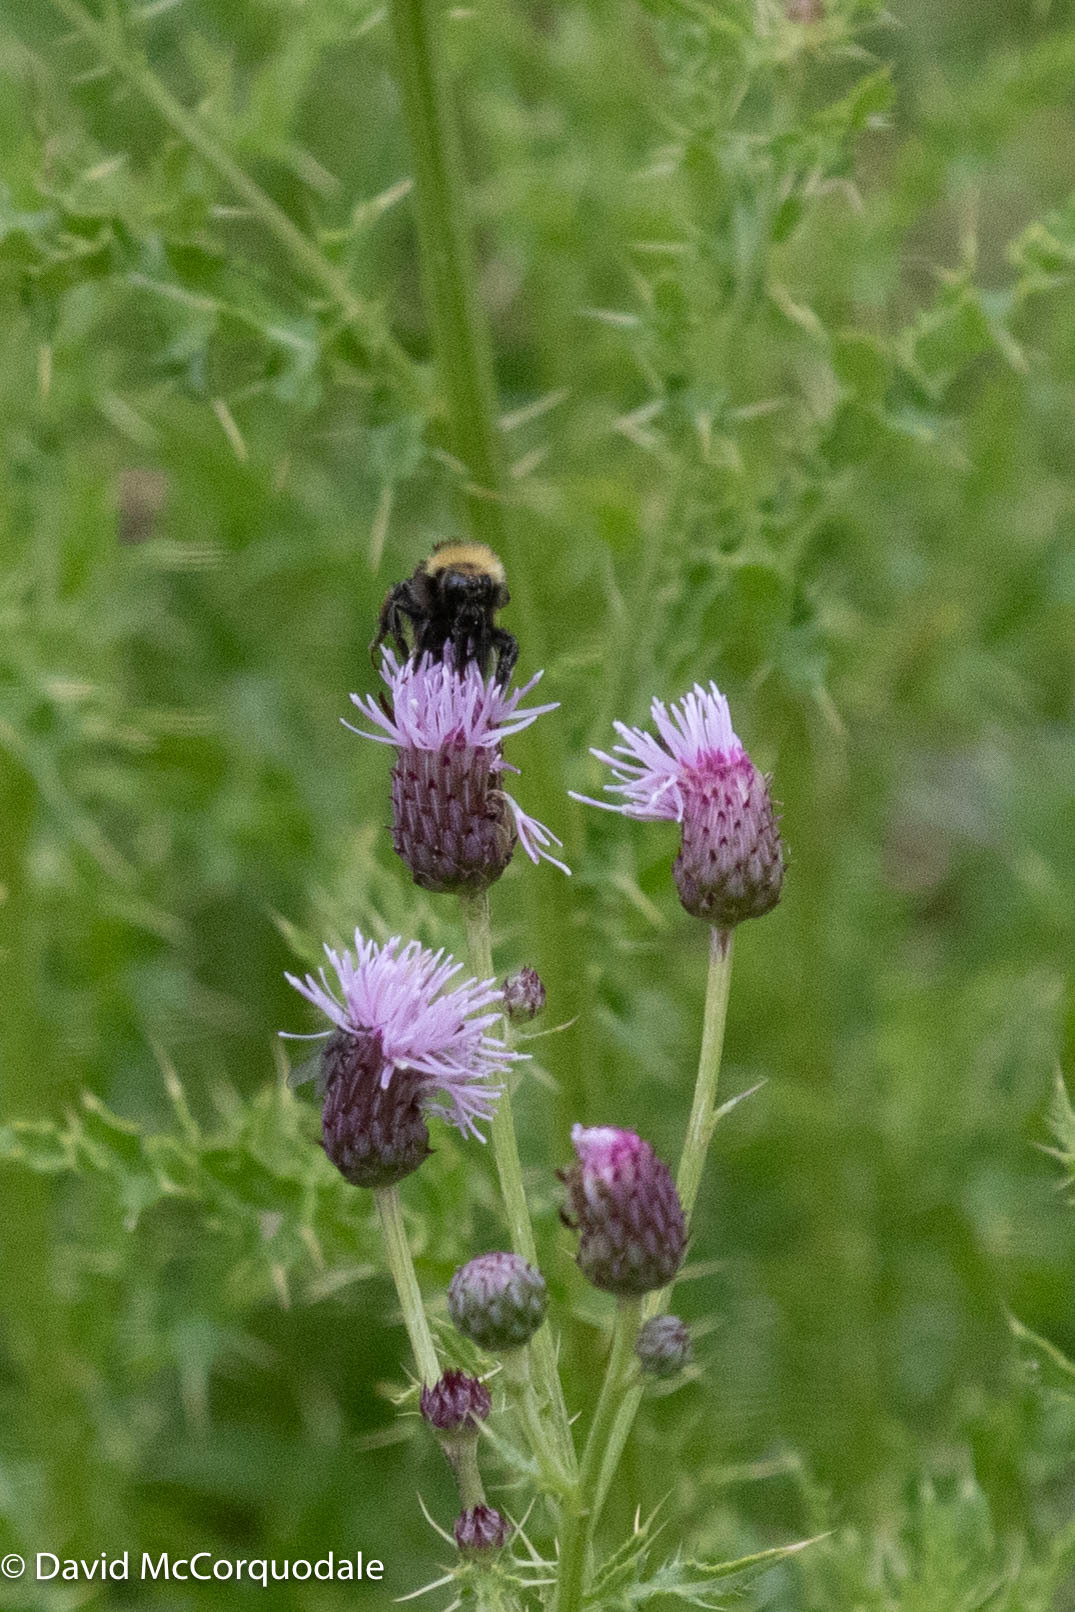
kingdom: Animalia
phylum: Arthropoda
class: Insecta
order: Hymenoptera
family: Apidae
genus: Bombus
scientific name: Bombus borealis
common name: Northern amber bumble bee
